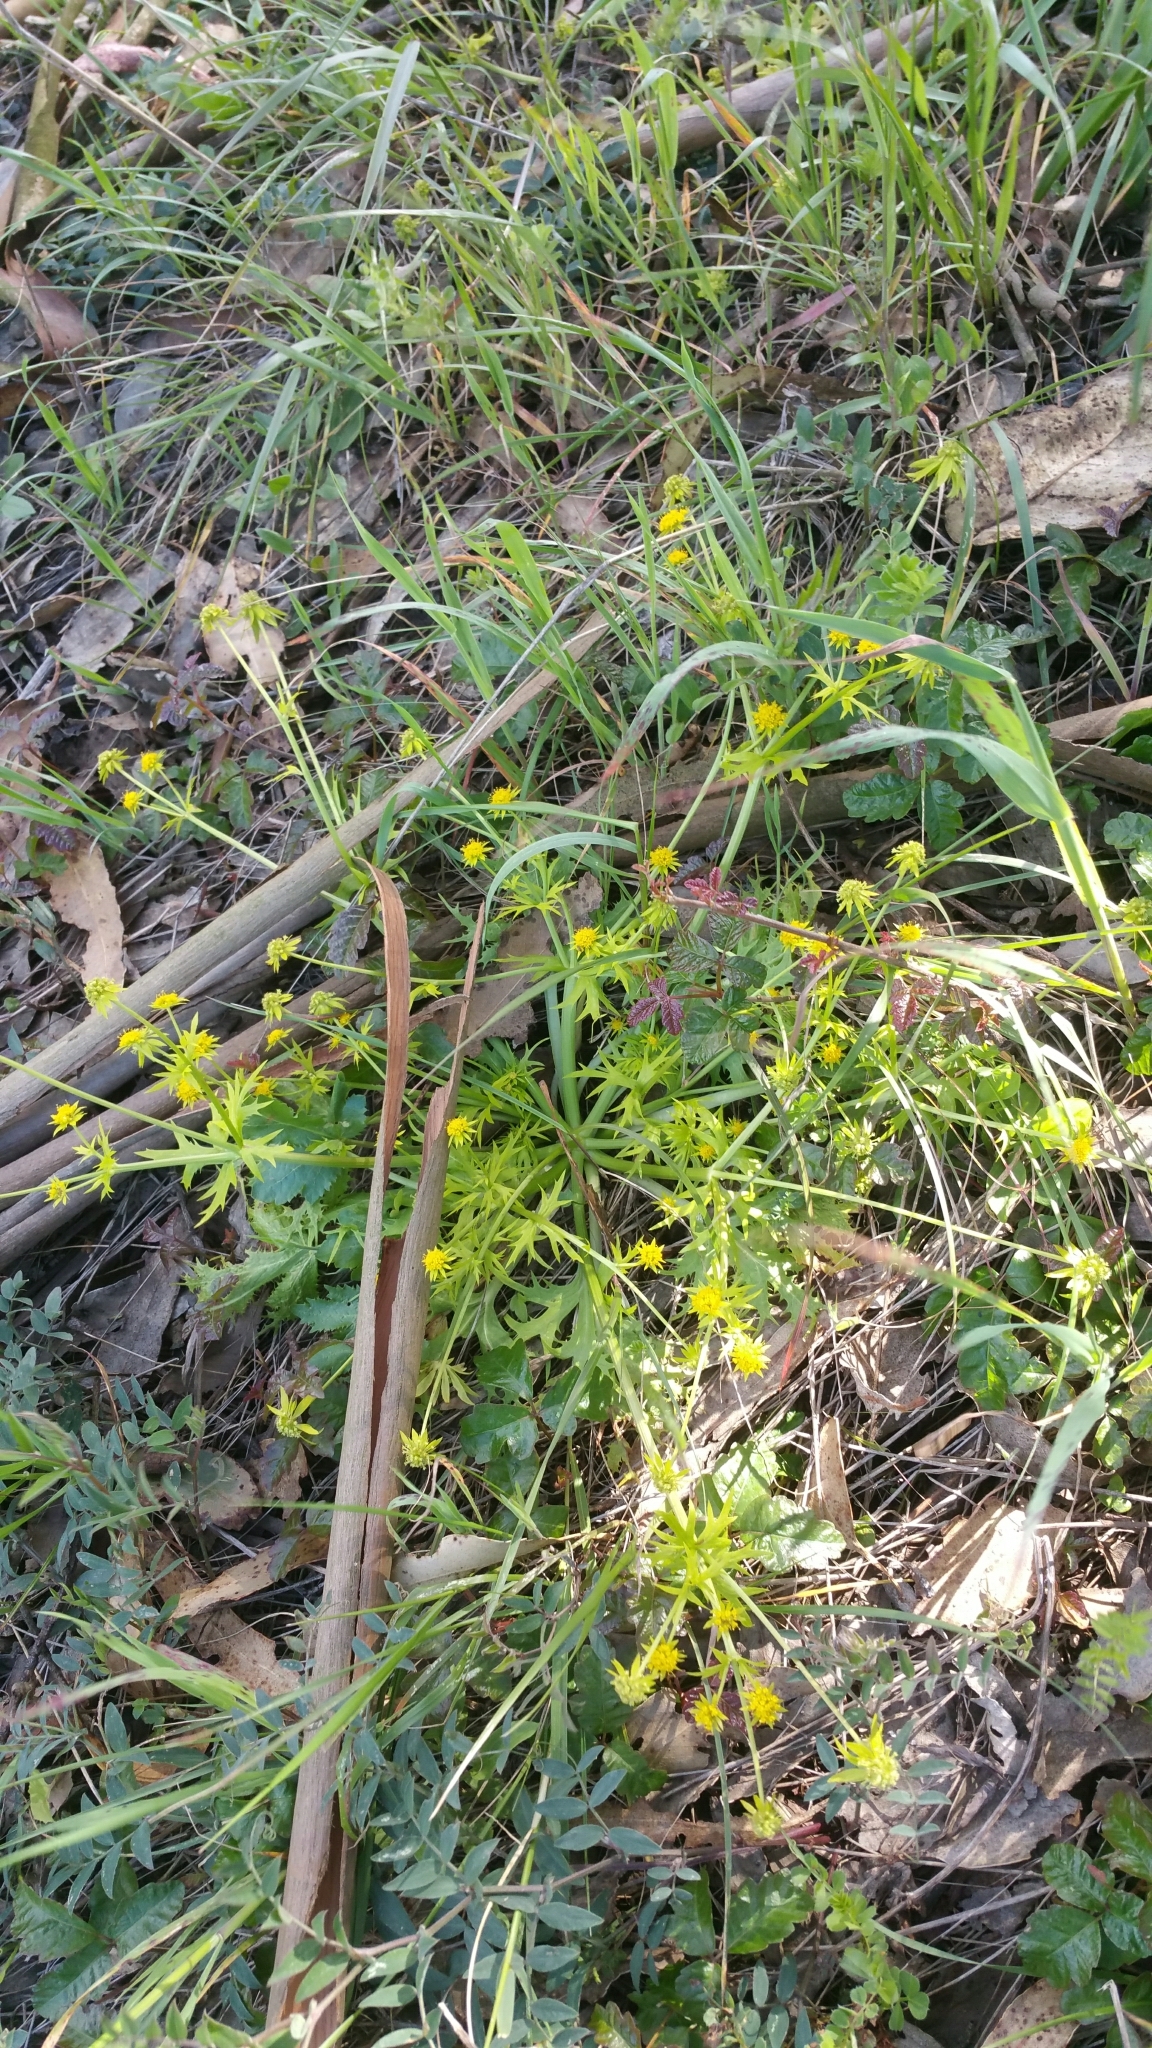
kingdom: Plantae
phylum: Tracheophyta
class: Magnoliopsida
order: Apiales
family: Apiaceae
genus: Sanicula
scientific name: Sanicula arctopoides
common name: Footsteps-of-spring
